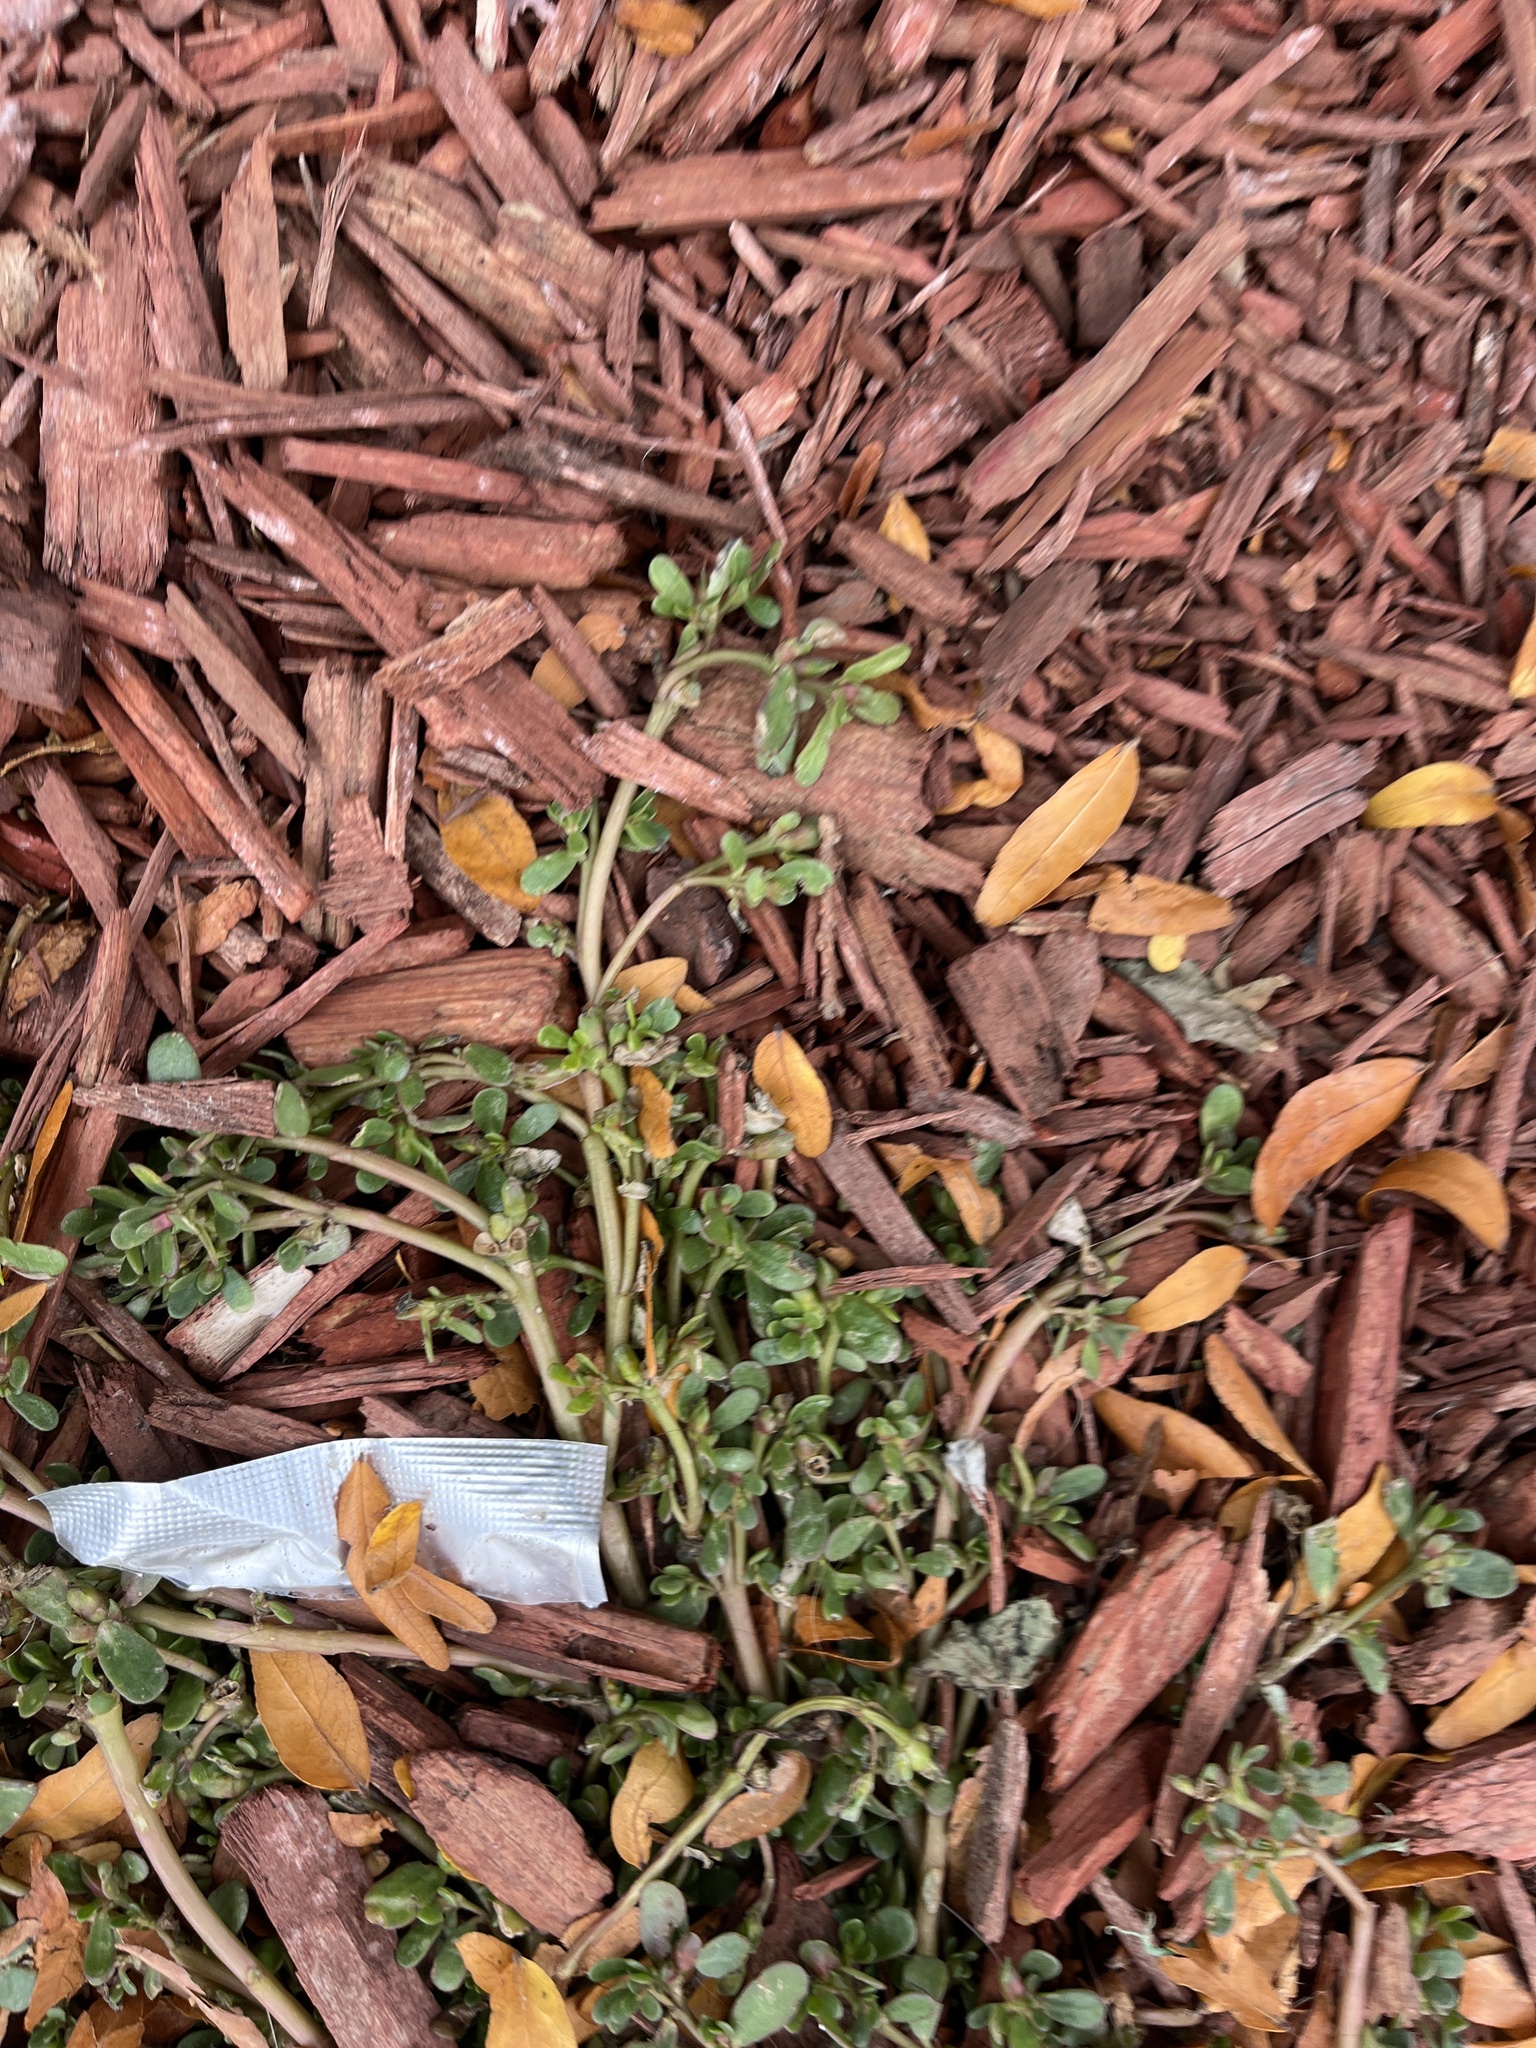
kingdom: Plantae
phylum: Tracheophyta
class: Magnoliopsida
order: Caryophyllales
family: Portulacaceae
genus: Portulaca
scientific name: Portulaca oleracea
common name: Common purslane
